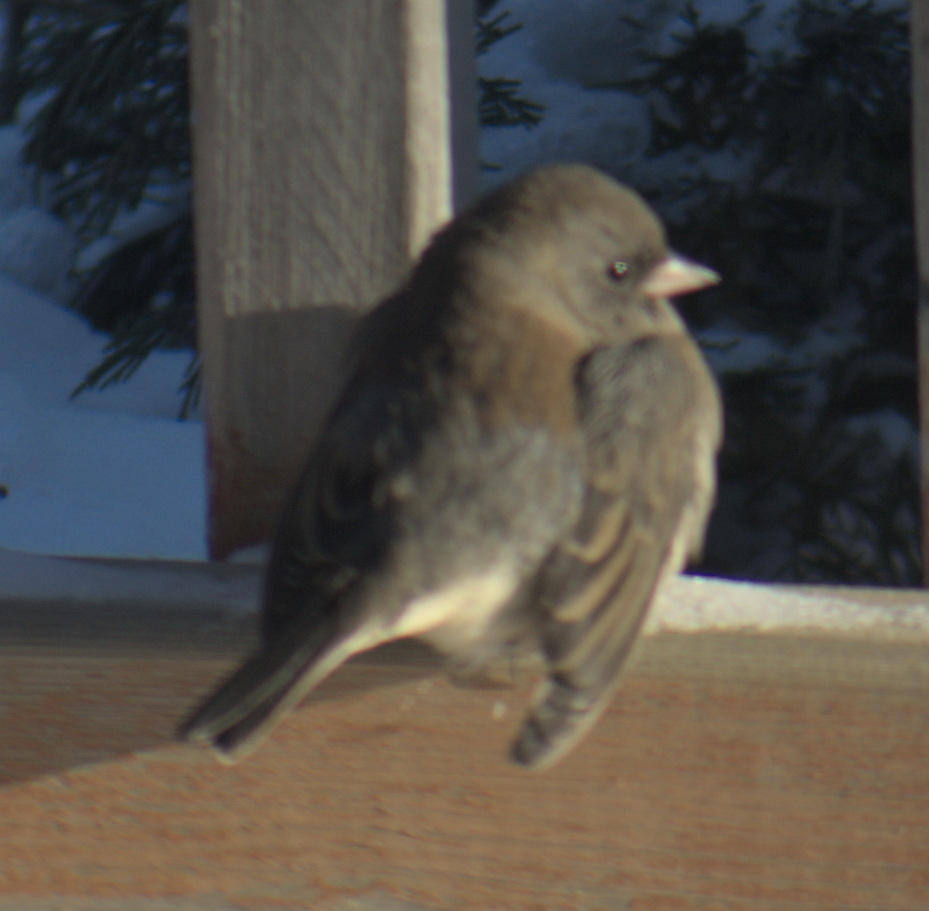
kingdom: Animalia
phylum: Chordata
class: Aves
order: Passeriformes
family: Passerellidae
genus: Junco
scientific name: Junco hyemalis
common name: Dark-eyed junco
